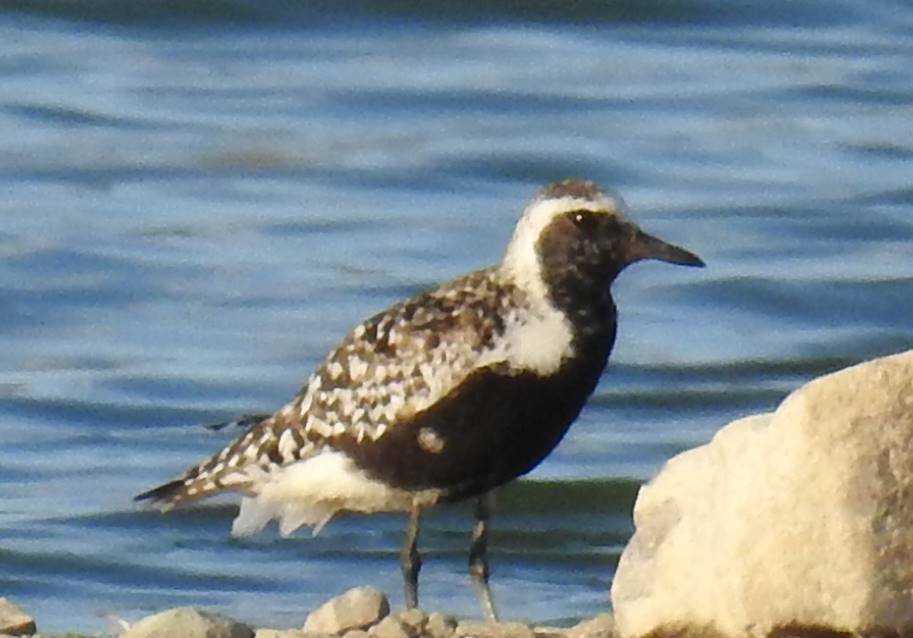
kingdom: Animalia
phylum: Chordata
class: Aves
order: Charadriiformes
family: Charadriidae
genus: Pluvialis
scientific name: Pluvialis squatarola
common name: Grey plover
